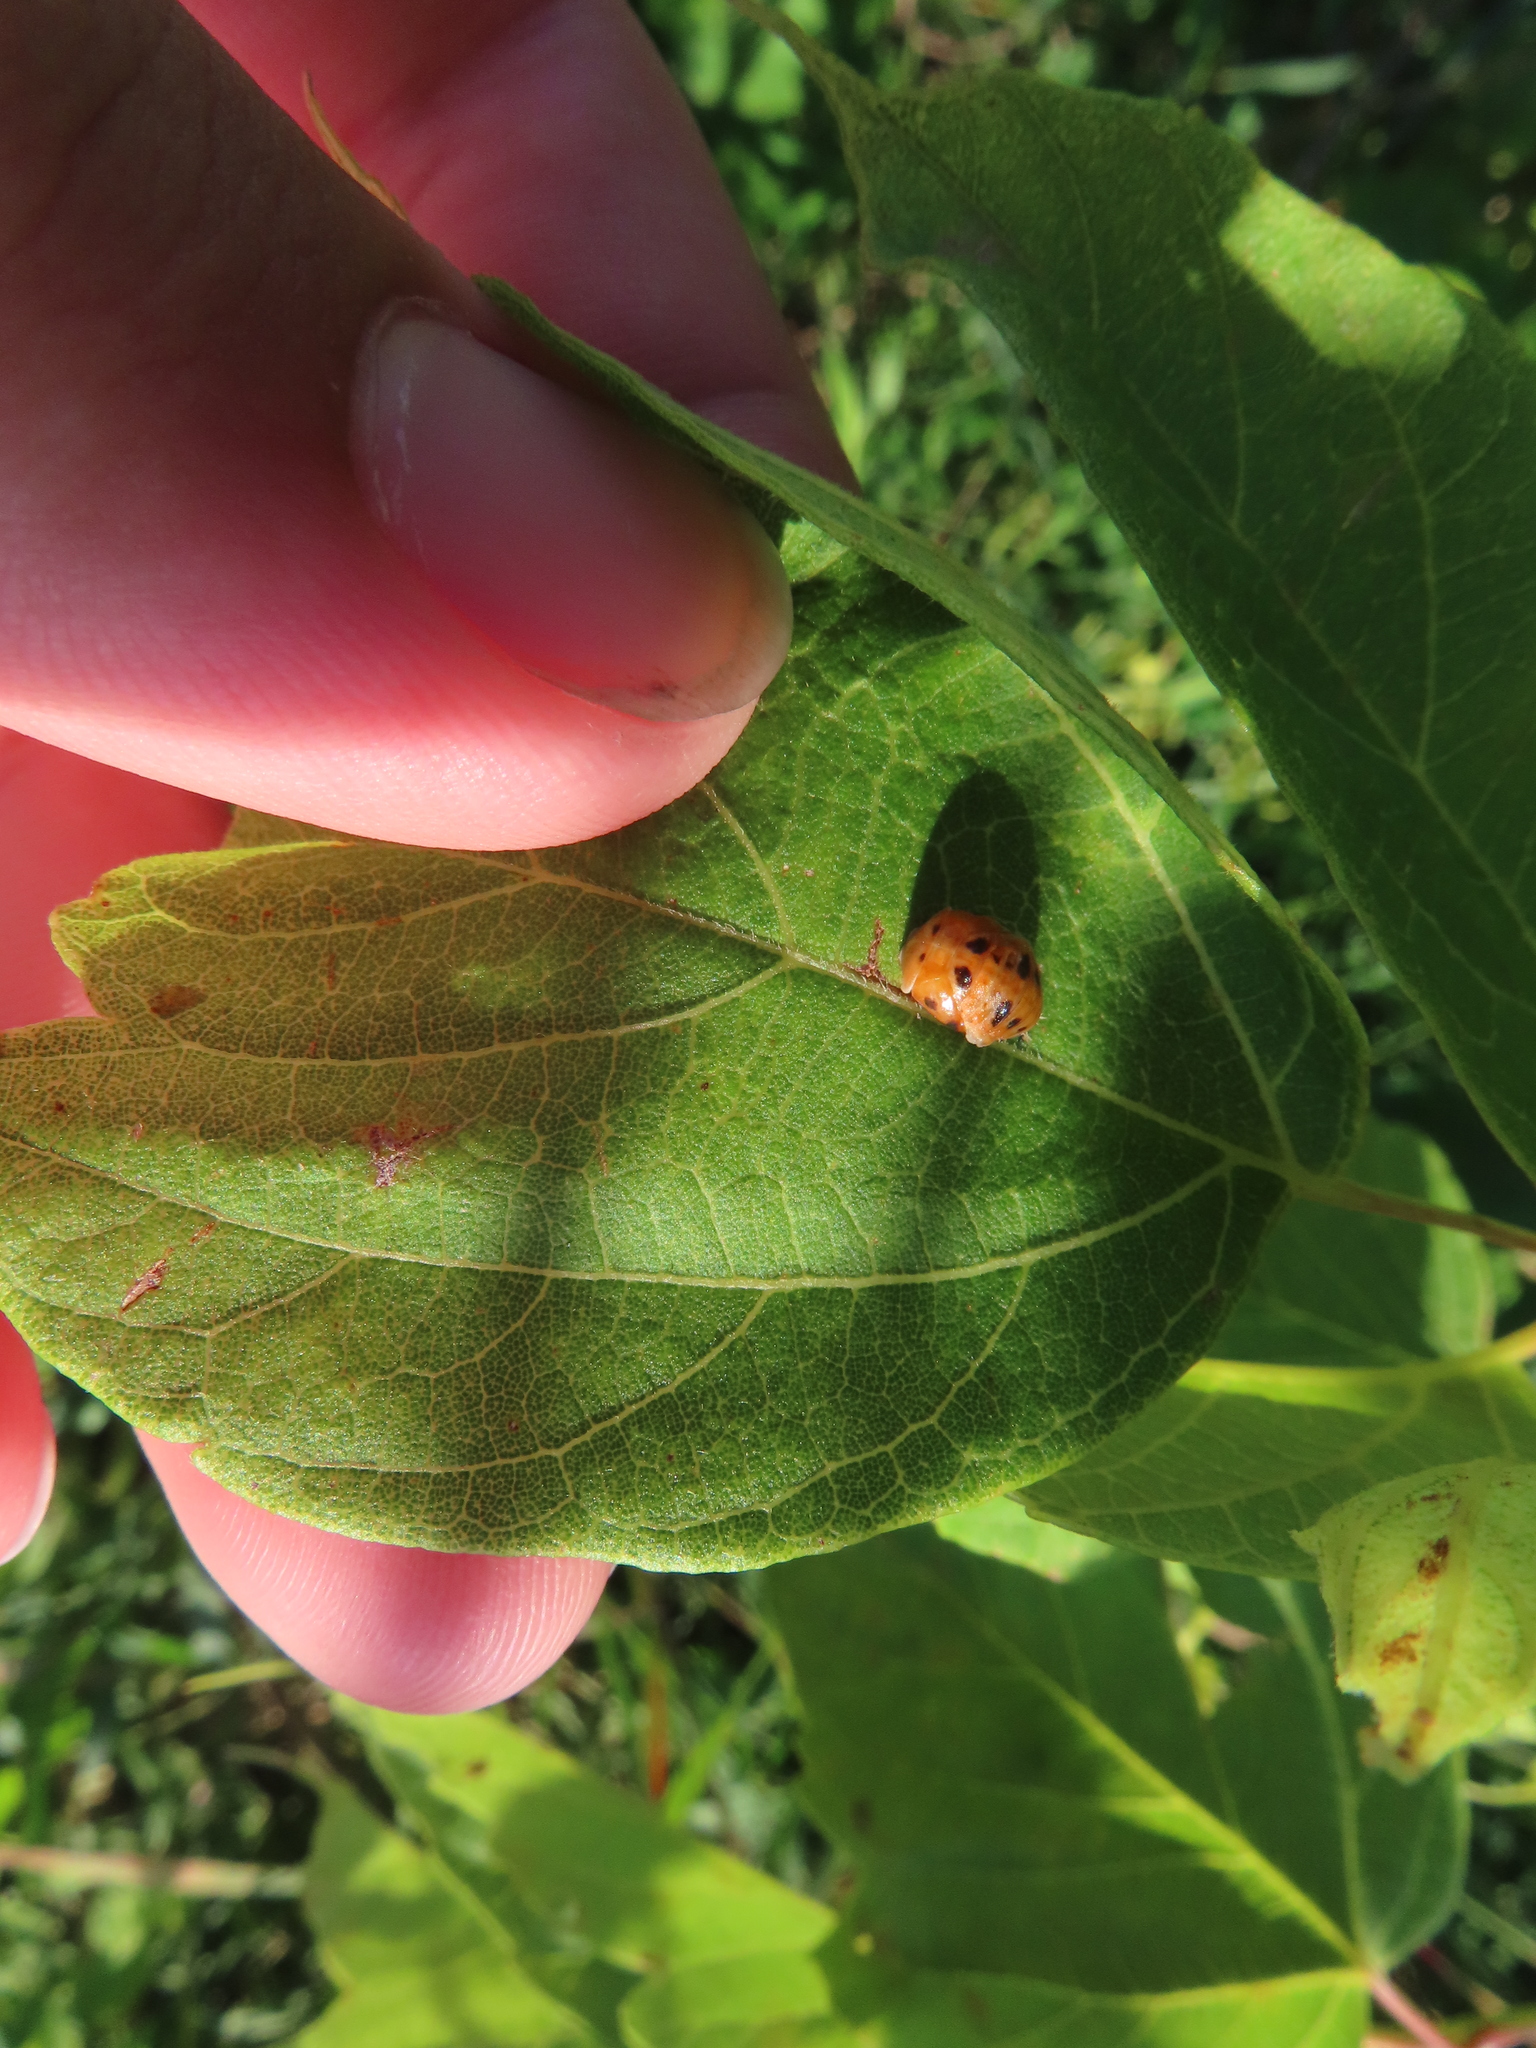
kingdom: Animalia
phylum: Arthropoda
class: Insecta
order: Coleoptera
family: Coccinellidae
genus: Harmonia
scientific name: Harmonia axyridis
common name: Harlequin ladybird
